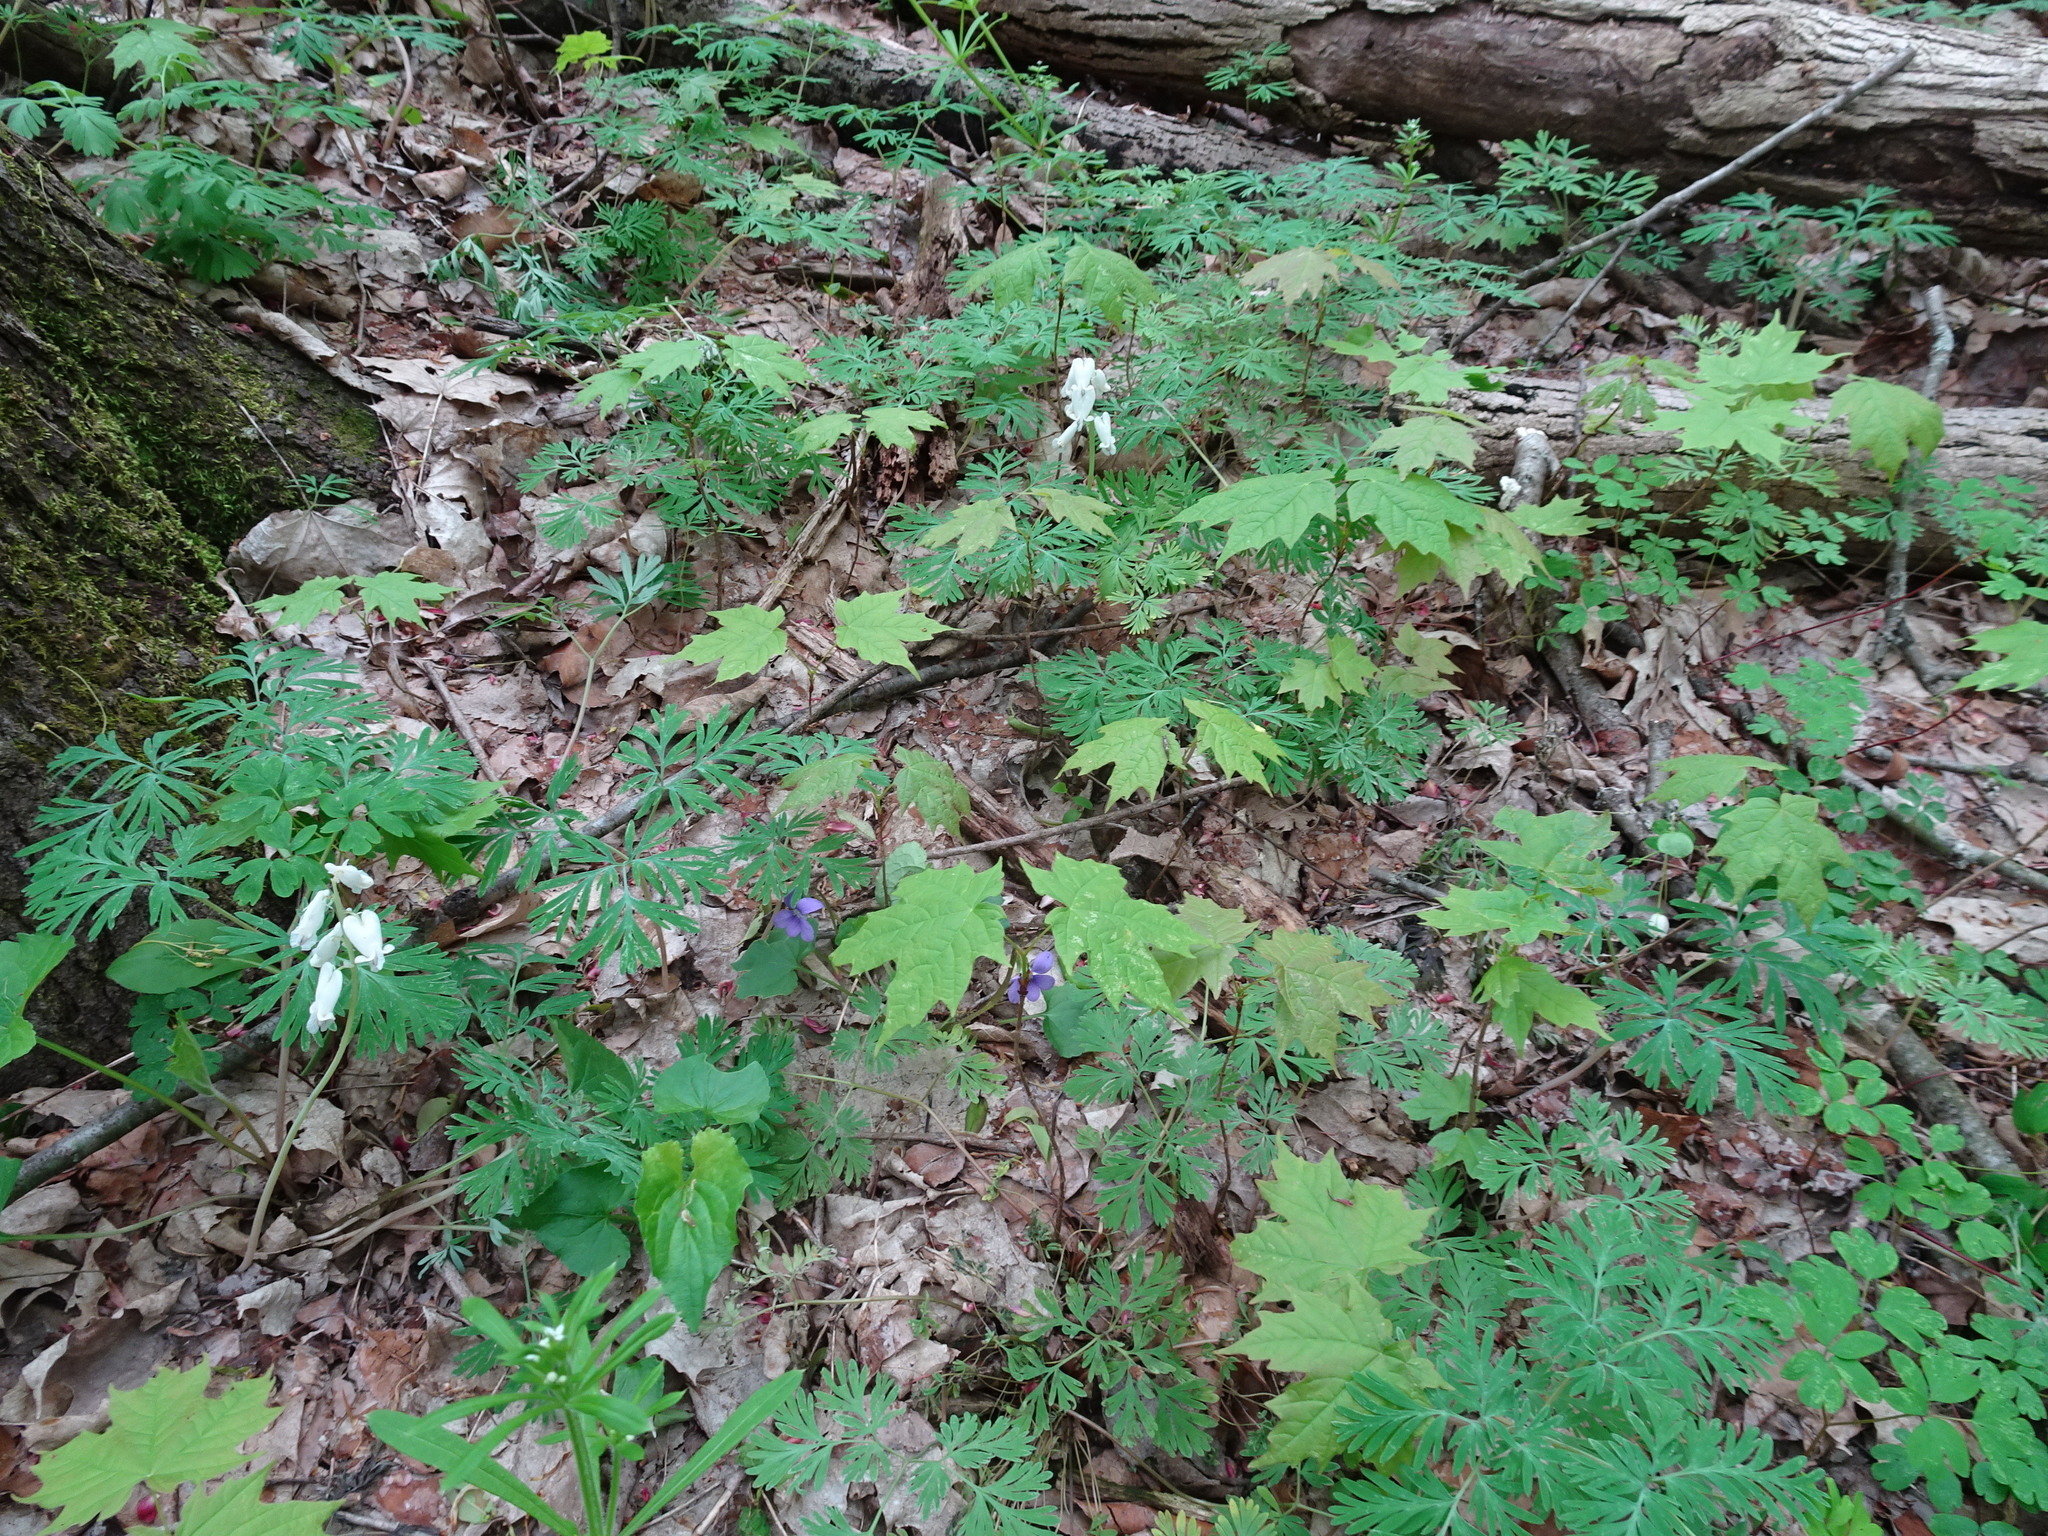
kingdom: Plantae
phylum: Tracheophyta
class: Magnoliopsida
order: Ranunculales
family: Papaveraceae
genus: Dicentra
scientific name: Dicentra canadensis
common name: Squirrel-corn
